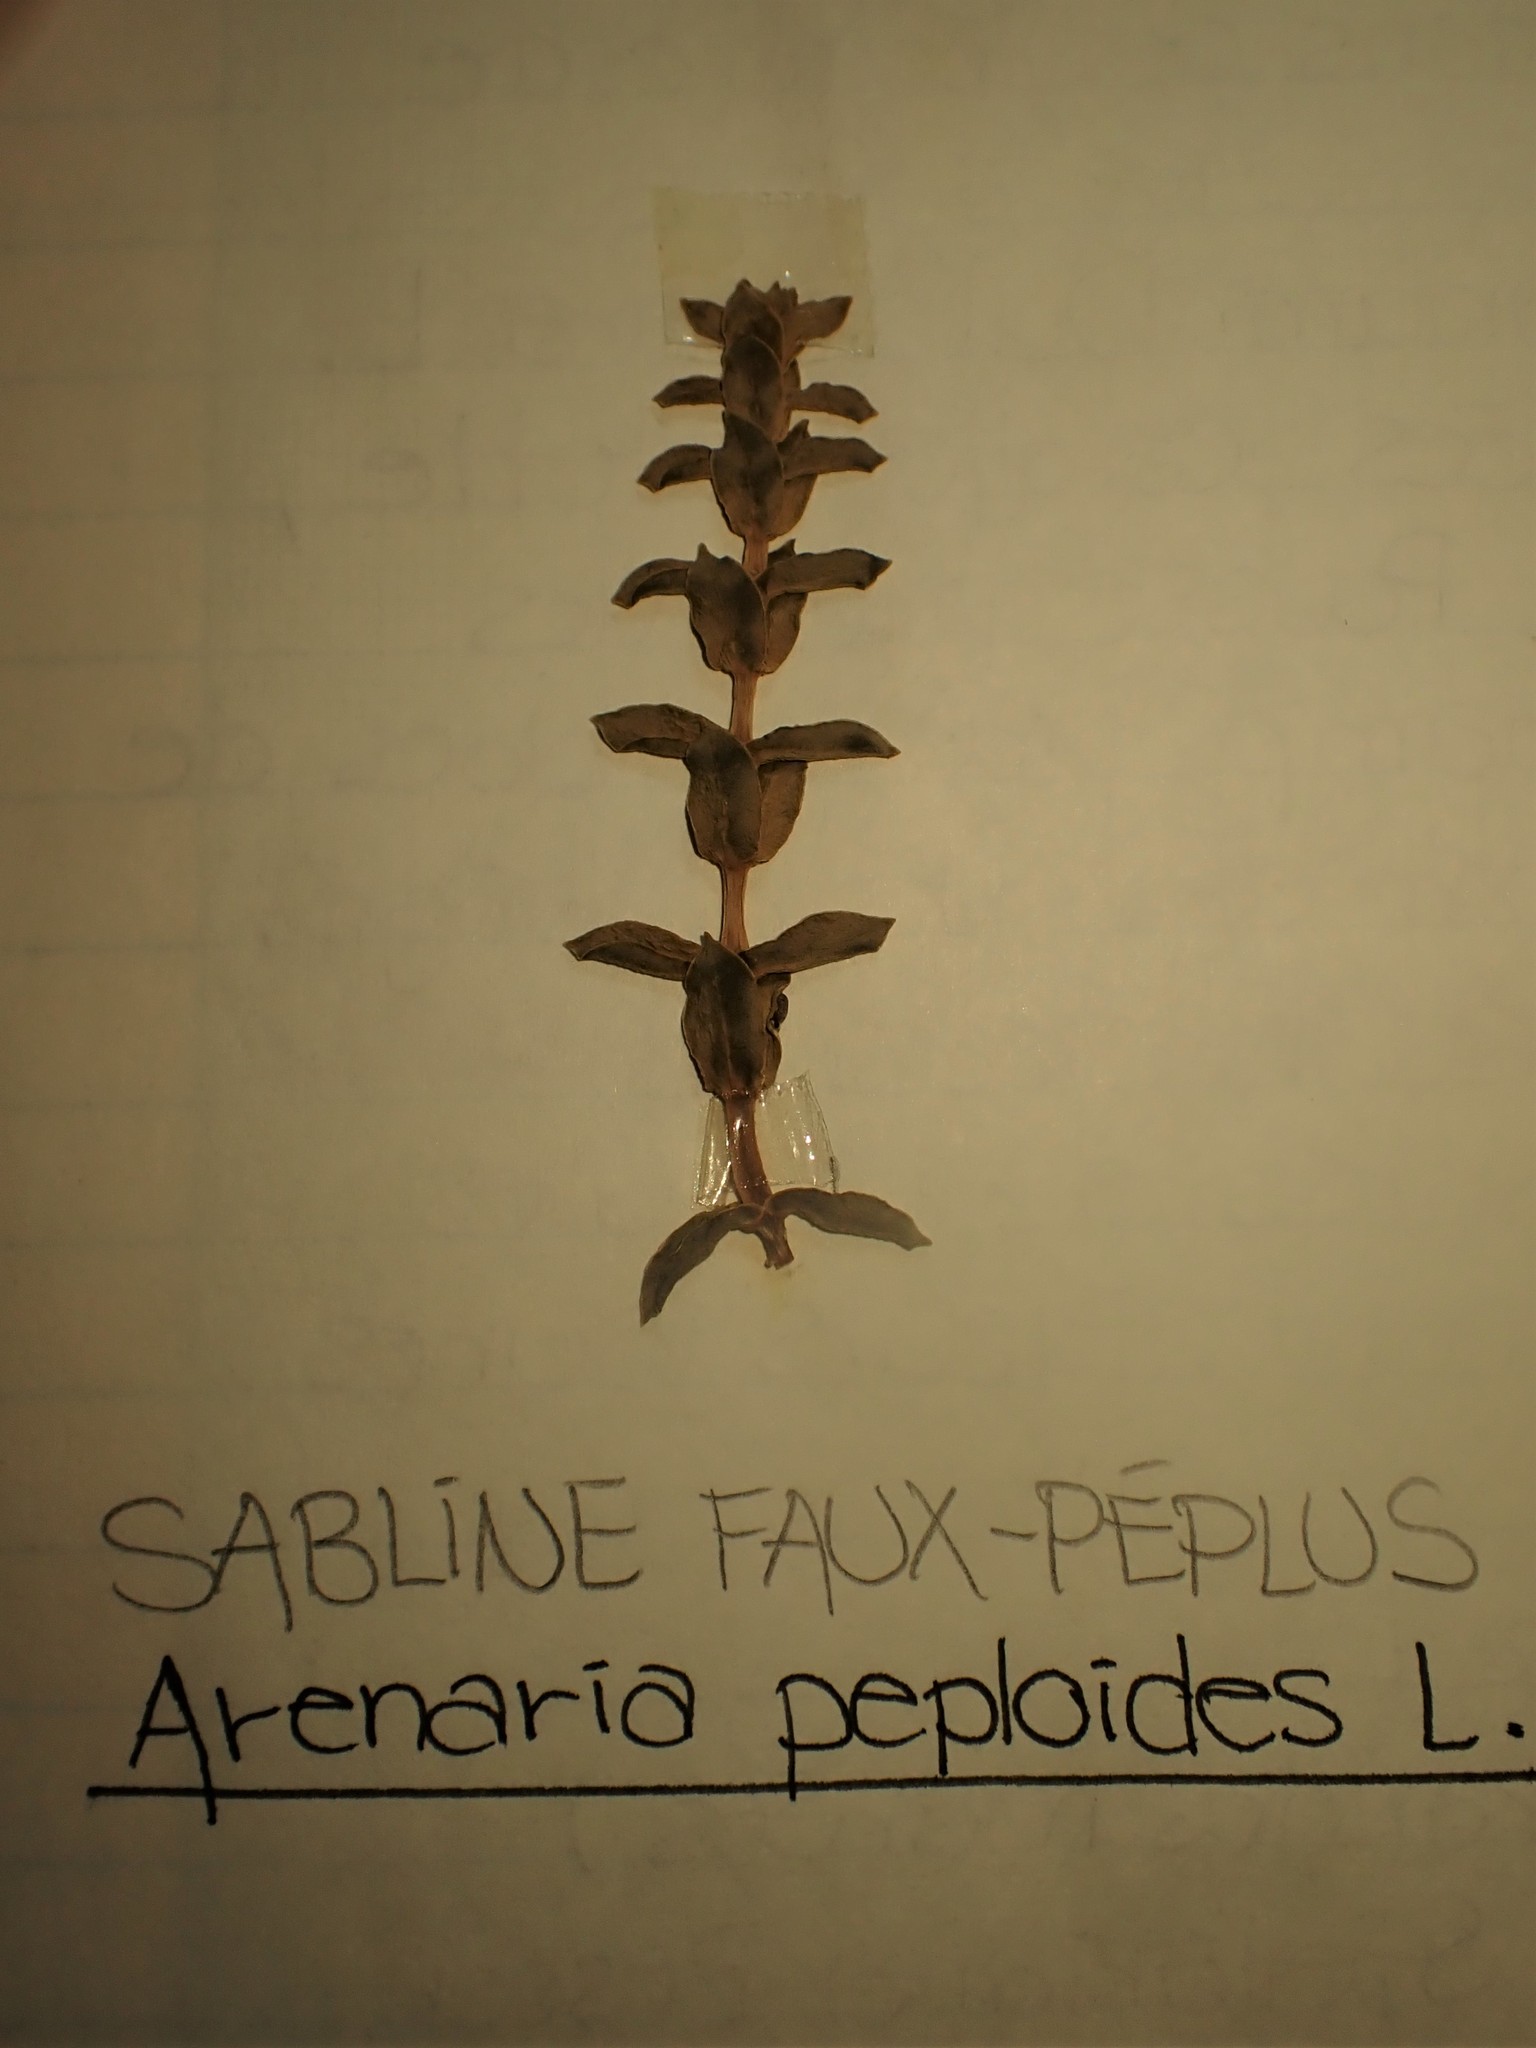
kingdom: Plantae
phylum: Tracheophyta
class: Magnoliopsida
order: Caryophyllales
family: Caryophyllaceae
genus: Honckenya
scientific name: Honckenya peploides
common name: Sea sandwort
